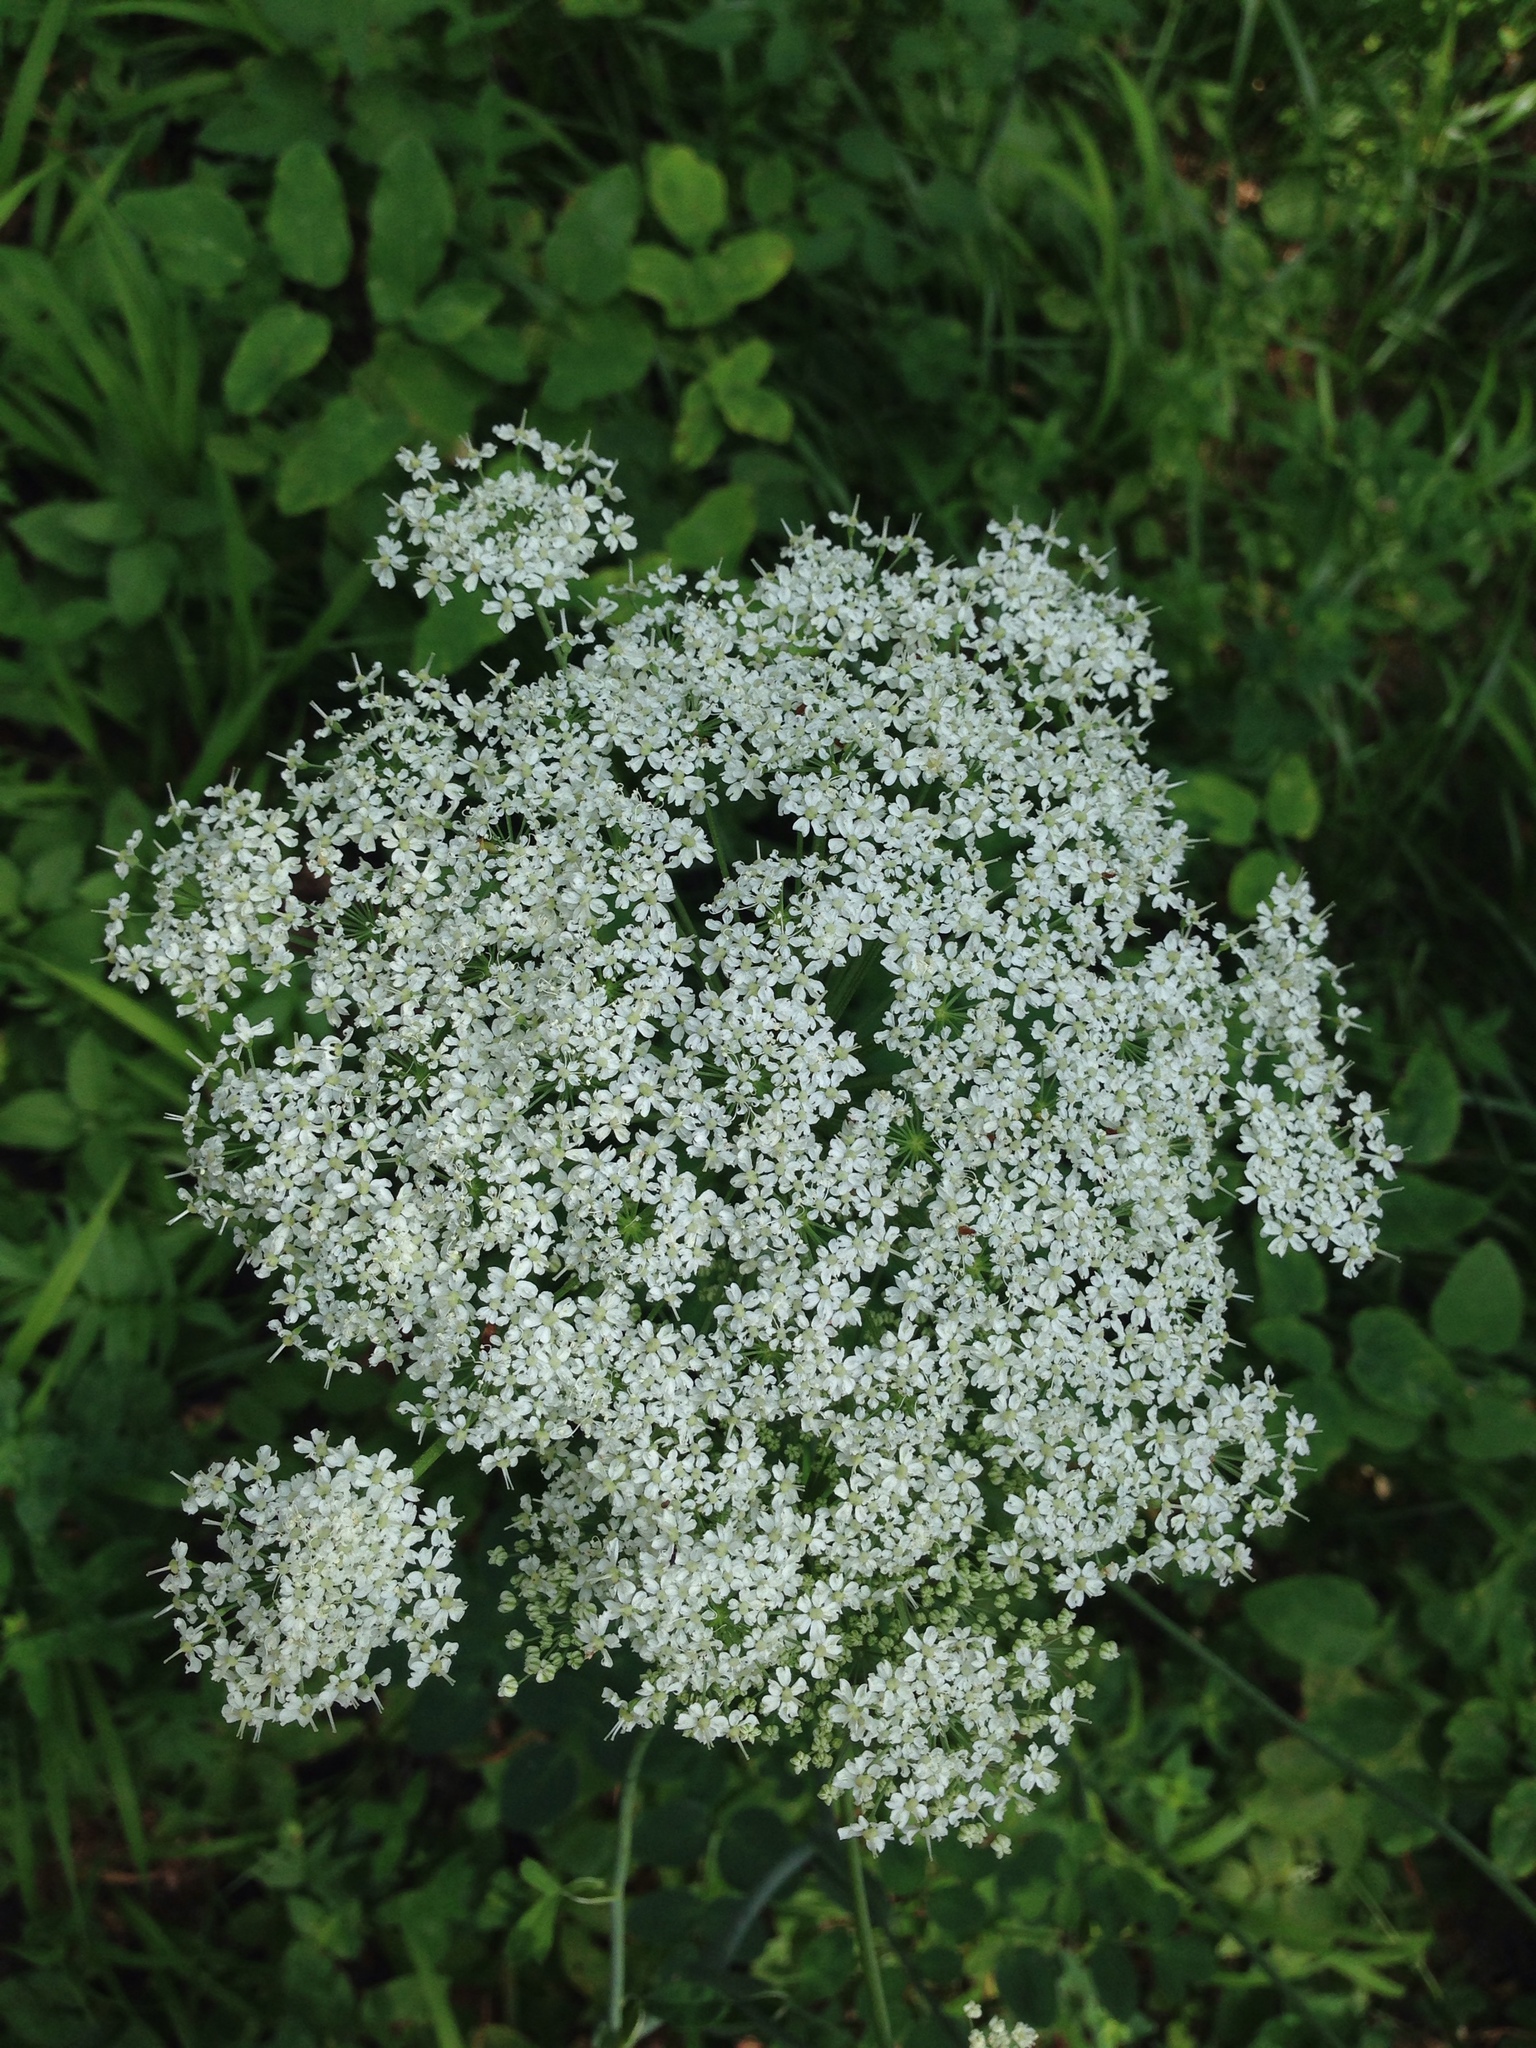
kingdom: Plantae
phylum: Tracheophyta
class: Magnoliopsida
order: Apiales
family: Apiaceae
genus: Daucus
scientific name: Daucus carota
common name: Wild carrot
